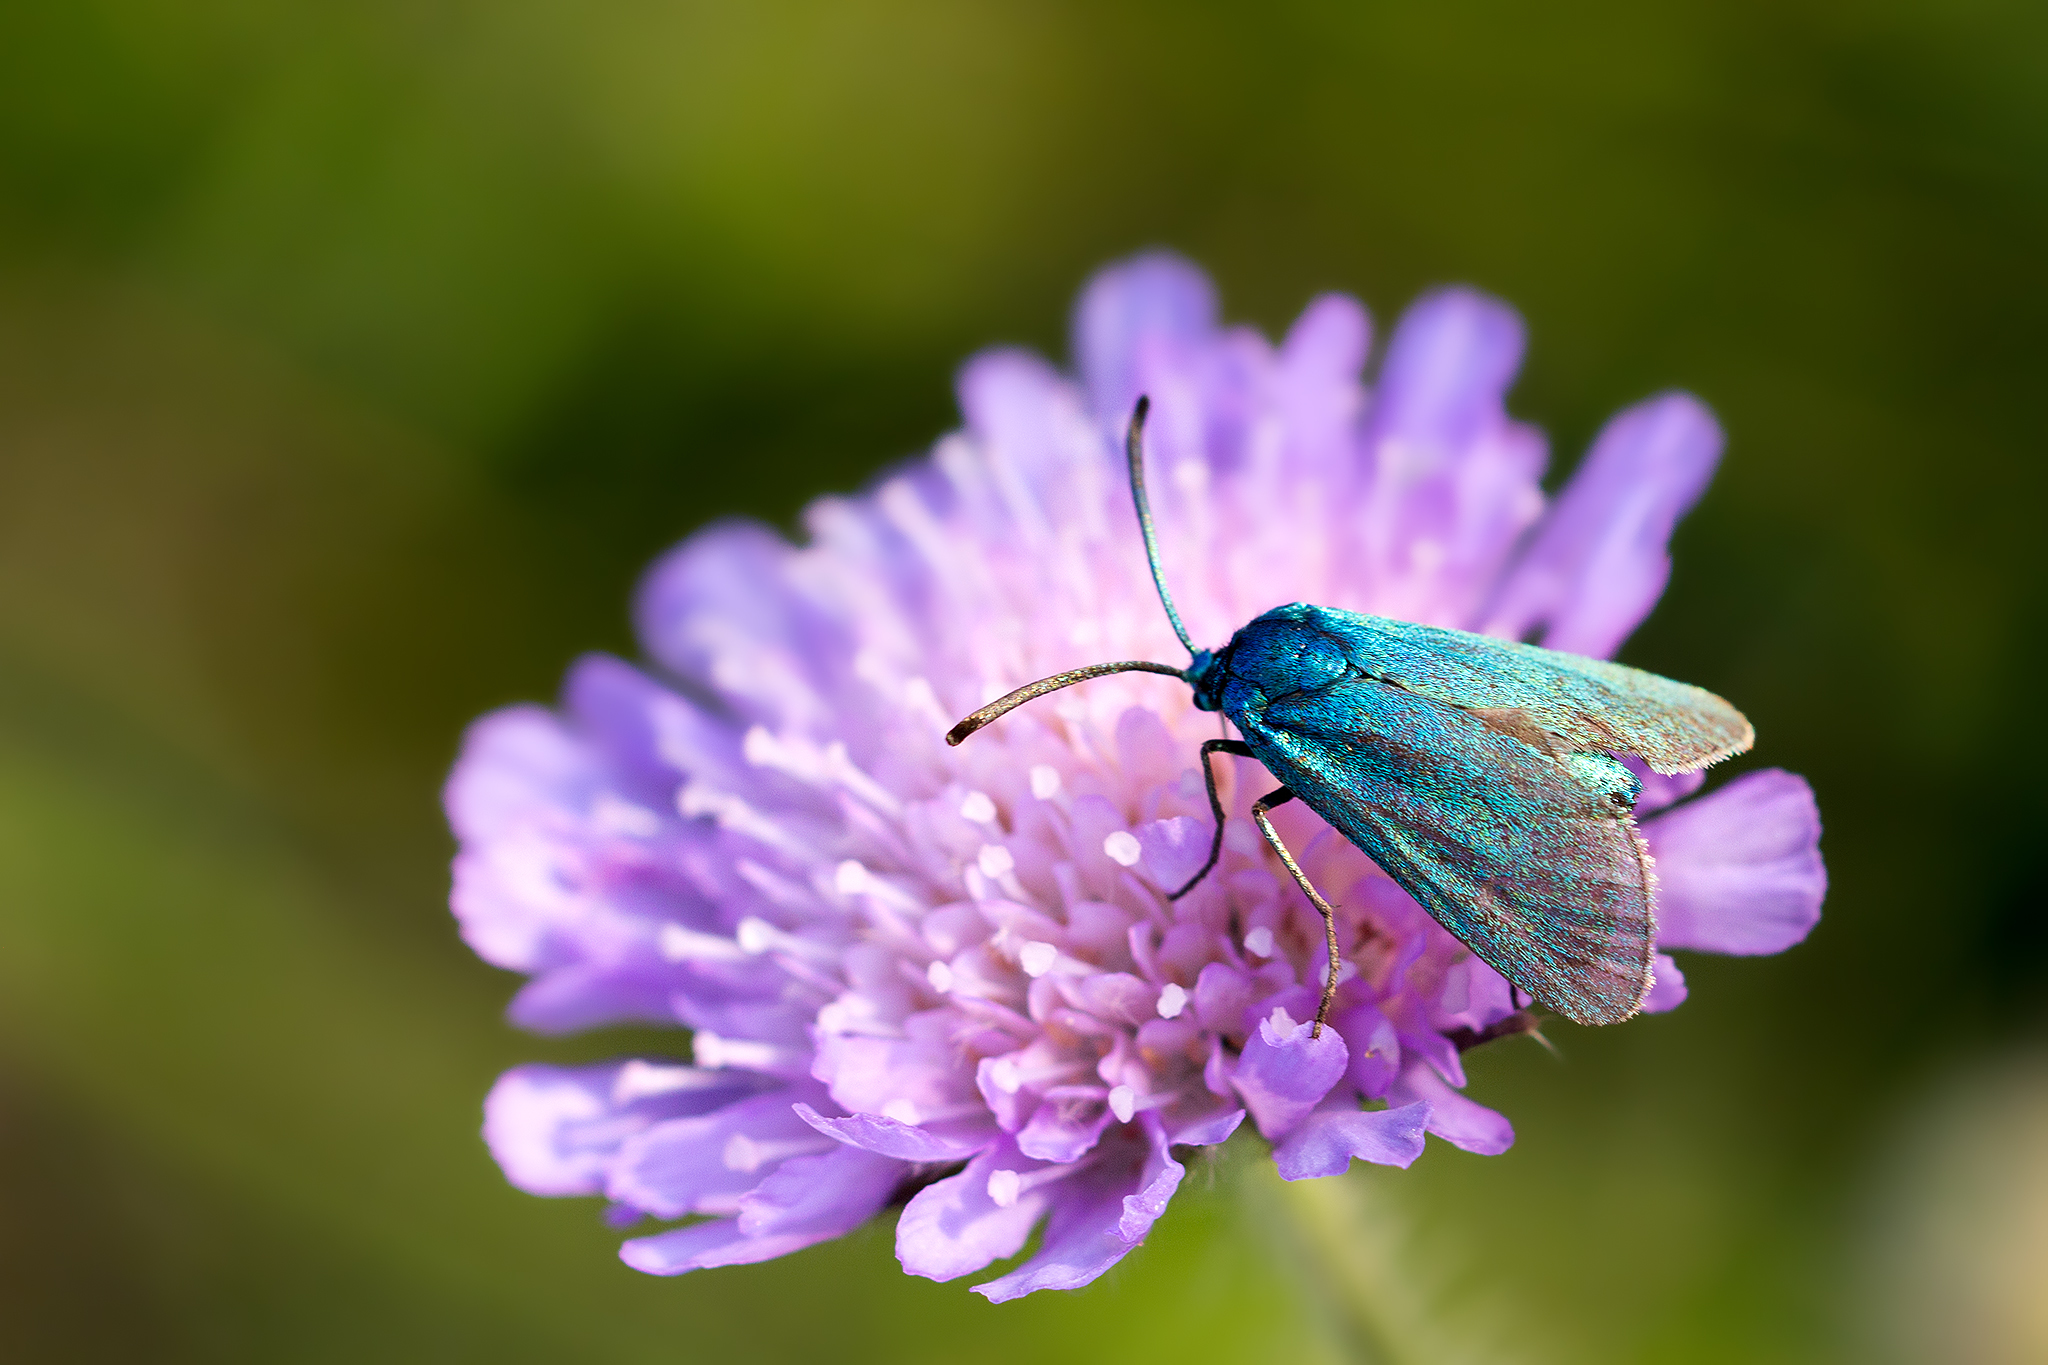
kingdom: Animalia
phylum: Arthropoda
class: Insecta
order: Lepidoptera
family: Zygaenidae
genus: Adscita
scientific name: Adscita statices
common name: Forester
